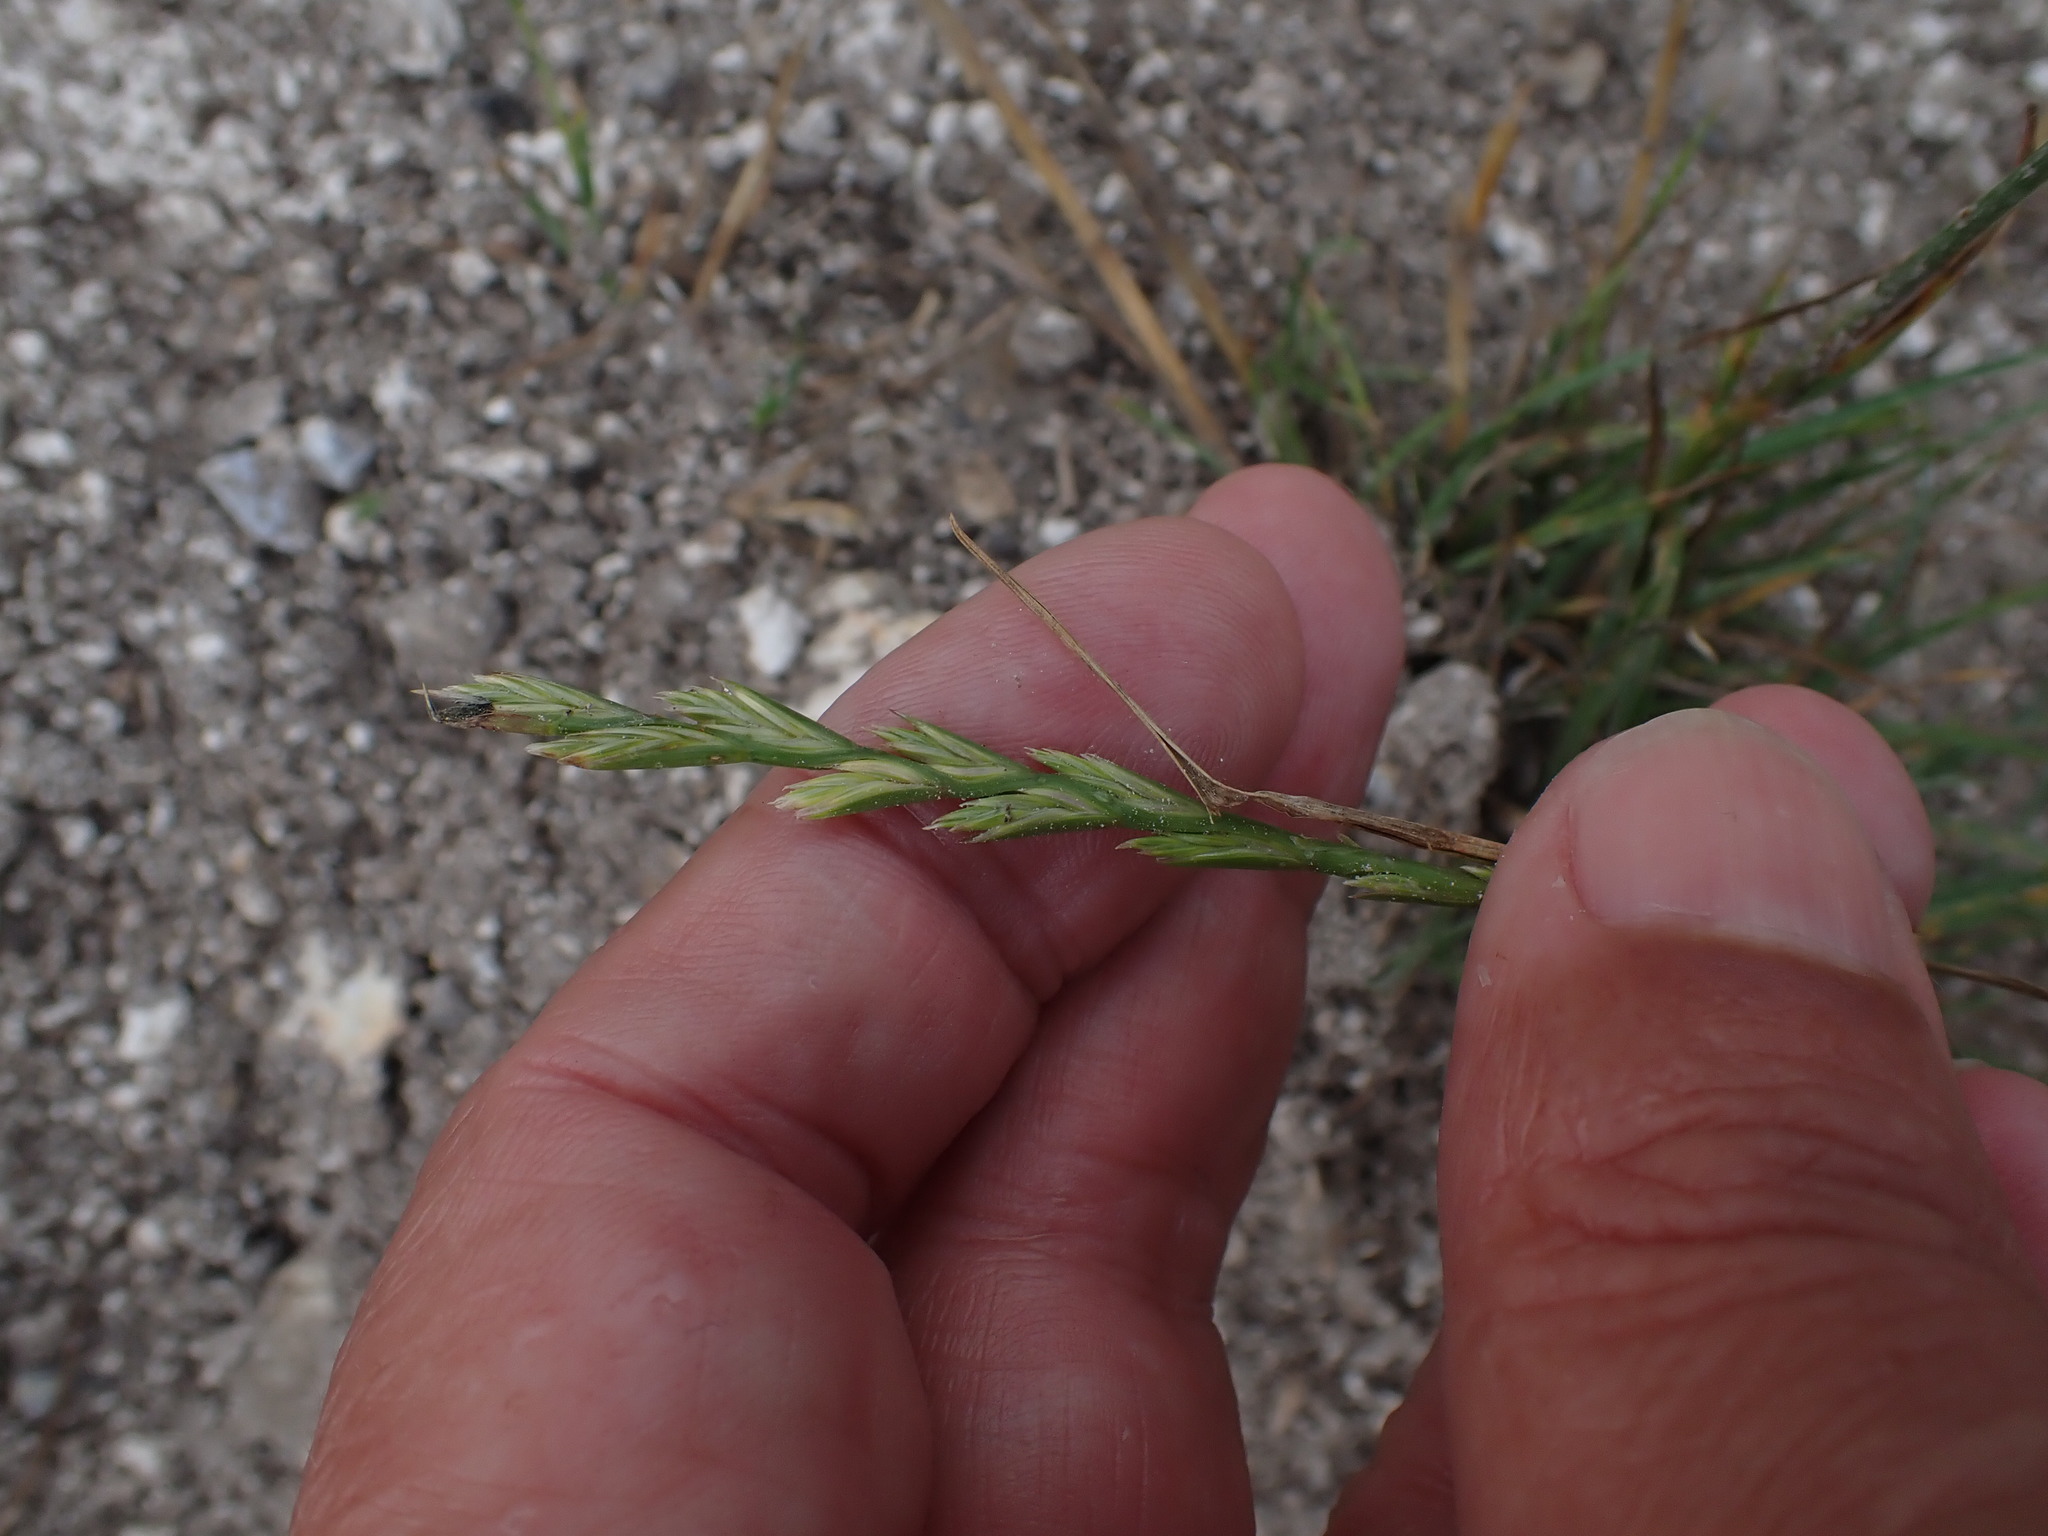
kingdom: Plantae
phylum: Tracheophyta
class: Liliopsida
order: Poales
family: Poaceae
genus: Lolium
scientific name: Lolium perenne
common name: Perennial ryegrass
